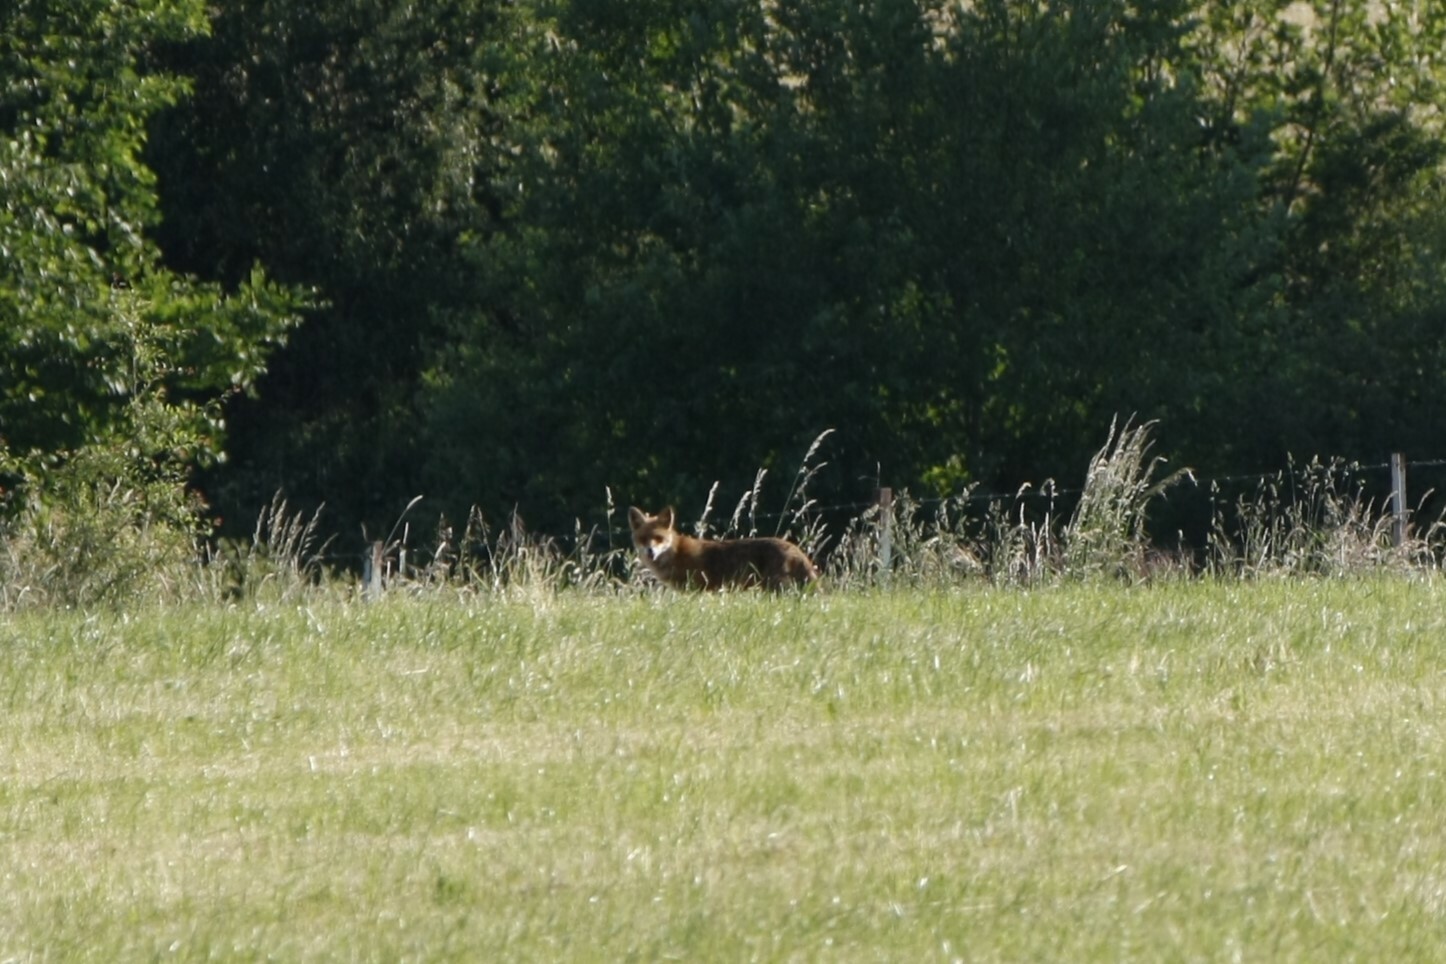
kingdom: Animalia
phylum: Chordata
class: Mammalia
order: Carnivora
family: Canidae
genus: Vulpes
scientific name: Vulpes vulpes
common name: Red fox
